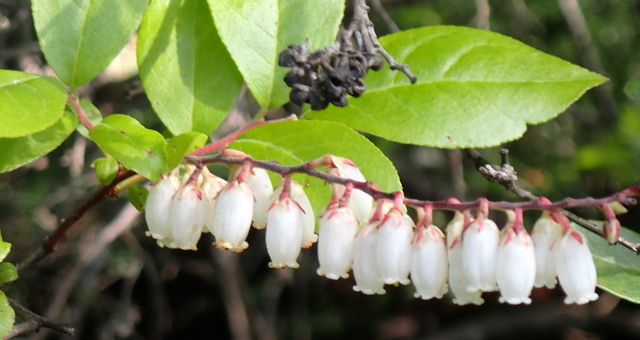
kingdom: Plantae
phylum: Tracheophyta
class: Magnoliopsida
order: Ericales
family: Ericaceae
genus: Eubotrys
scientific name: Eubotrys racemosa
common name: Fetterbush
